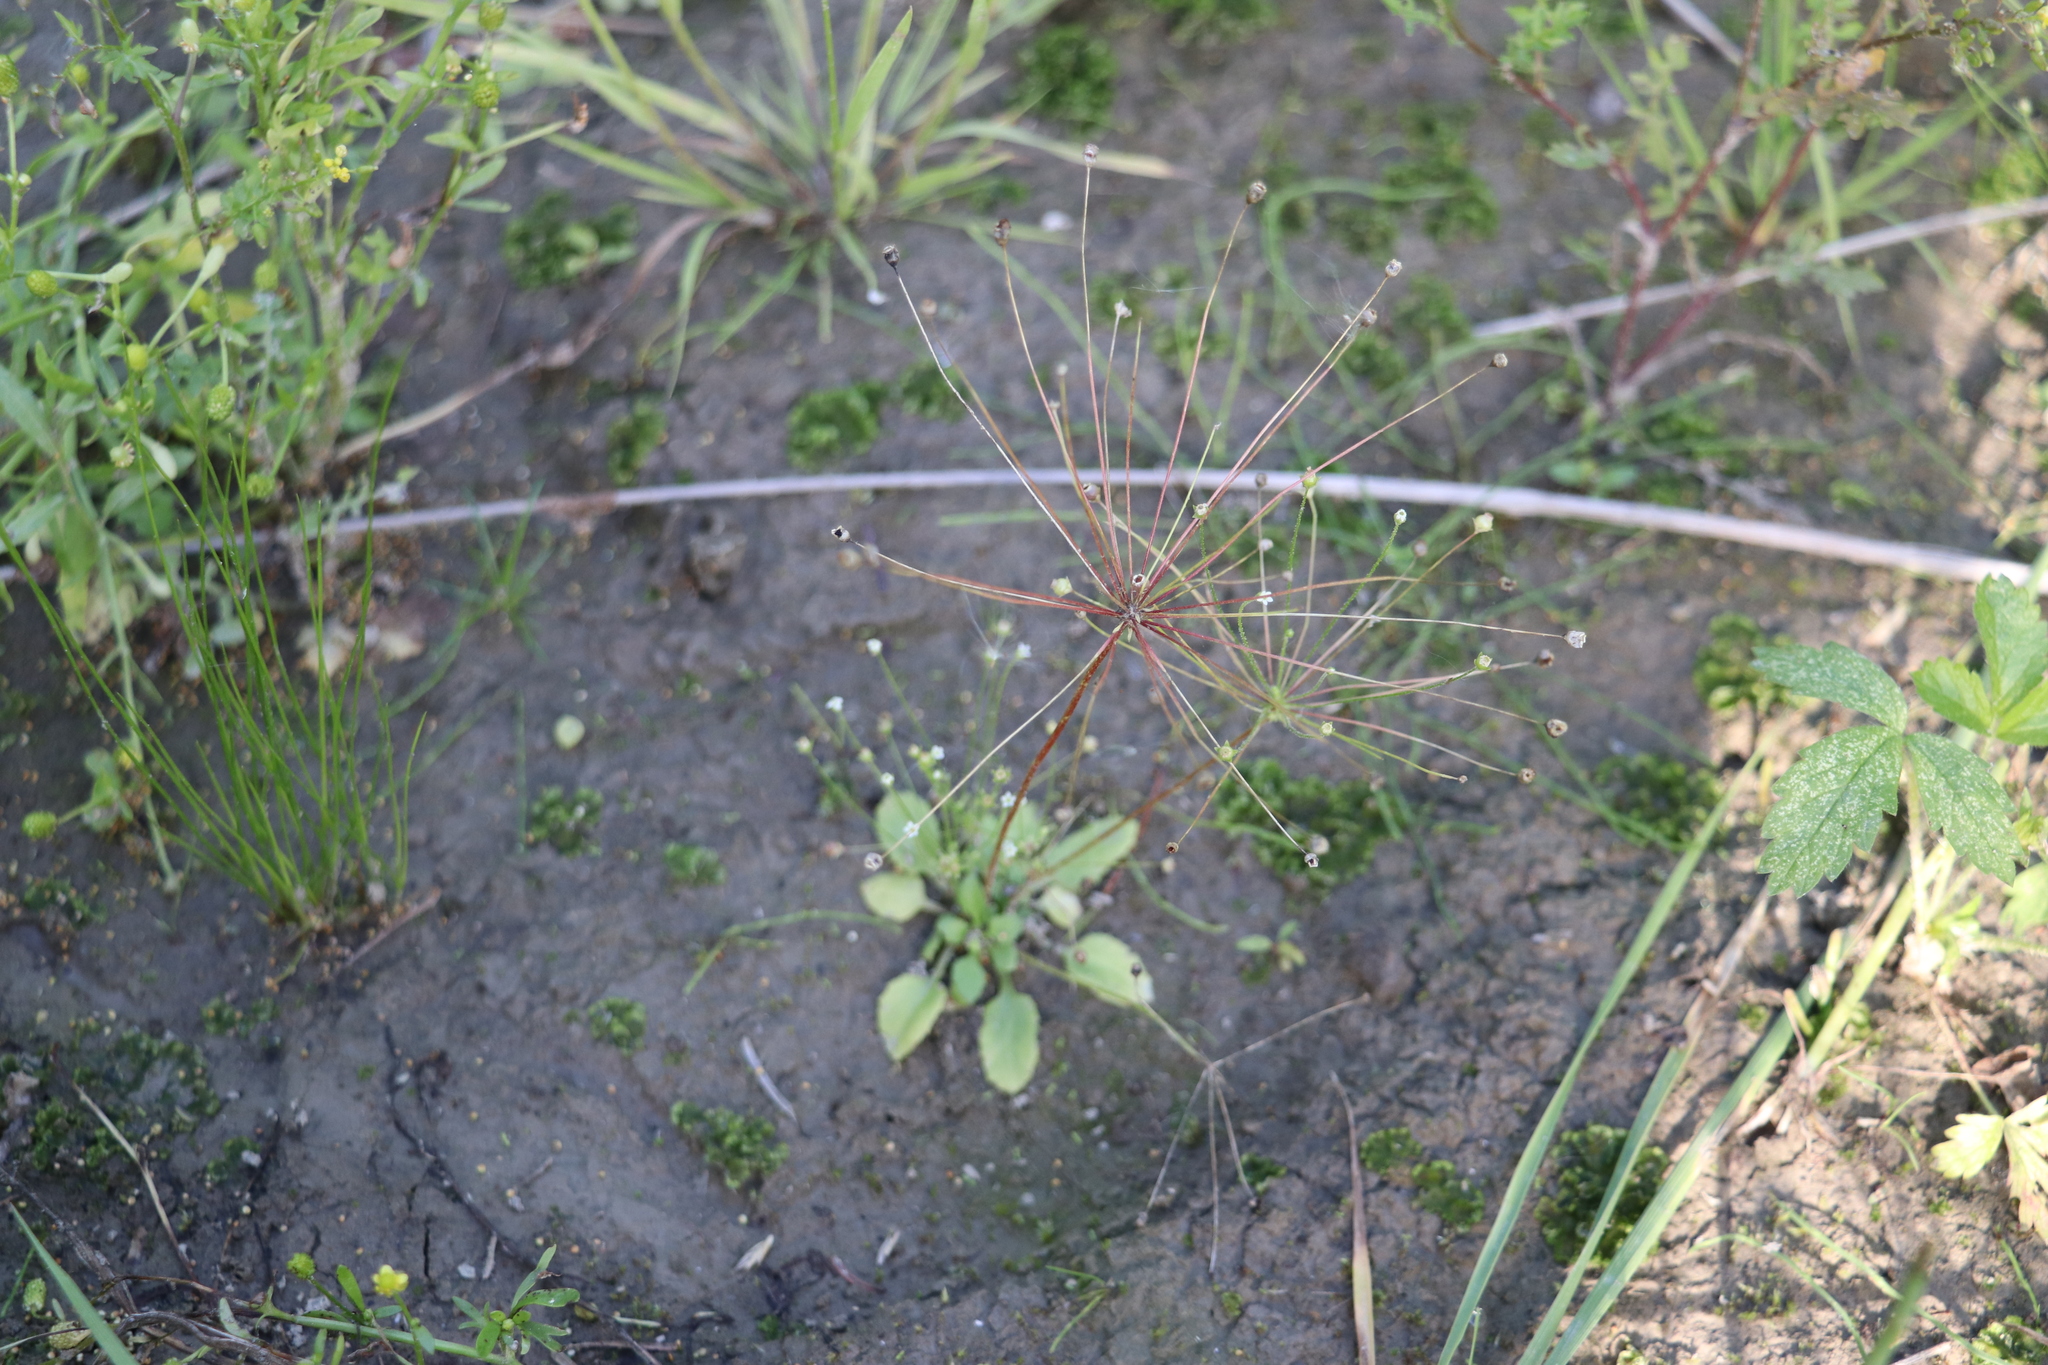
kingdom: Plantae
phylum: Tracheophyta
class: Magnoliopsida
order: Ericales
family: Primulaceae
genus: Androsace
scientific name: Androsace filiformis
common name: Filiform rock jasmine
